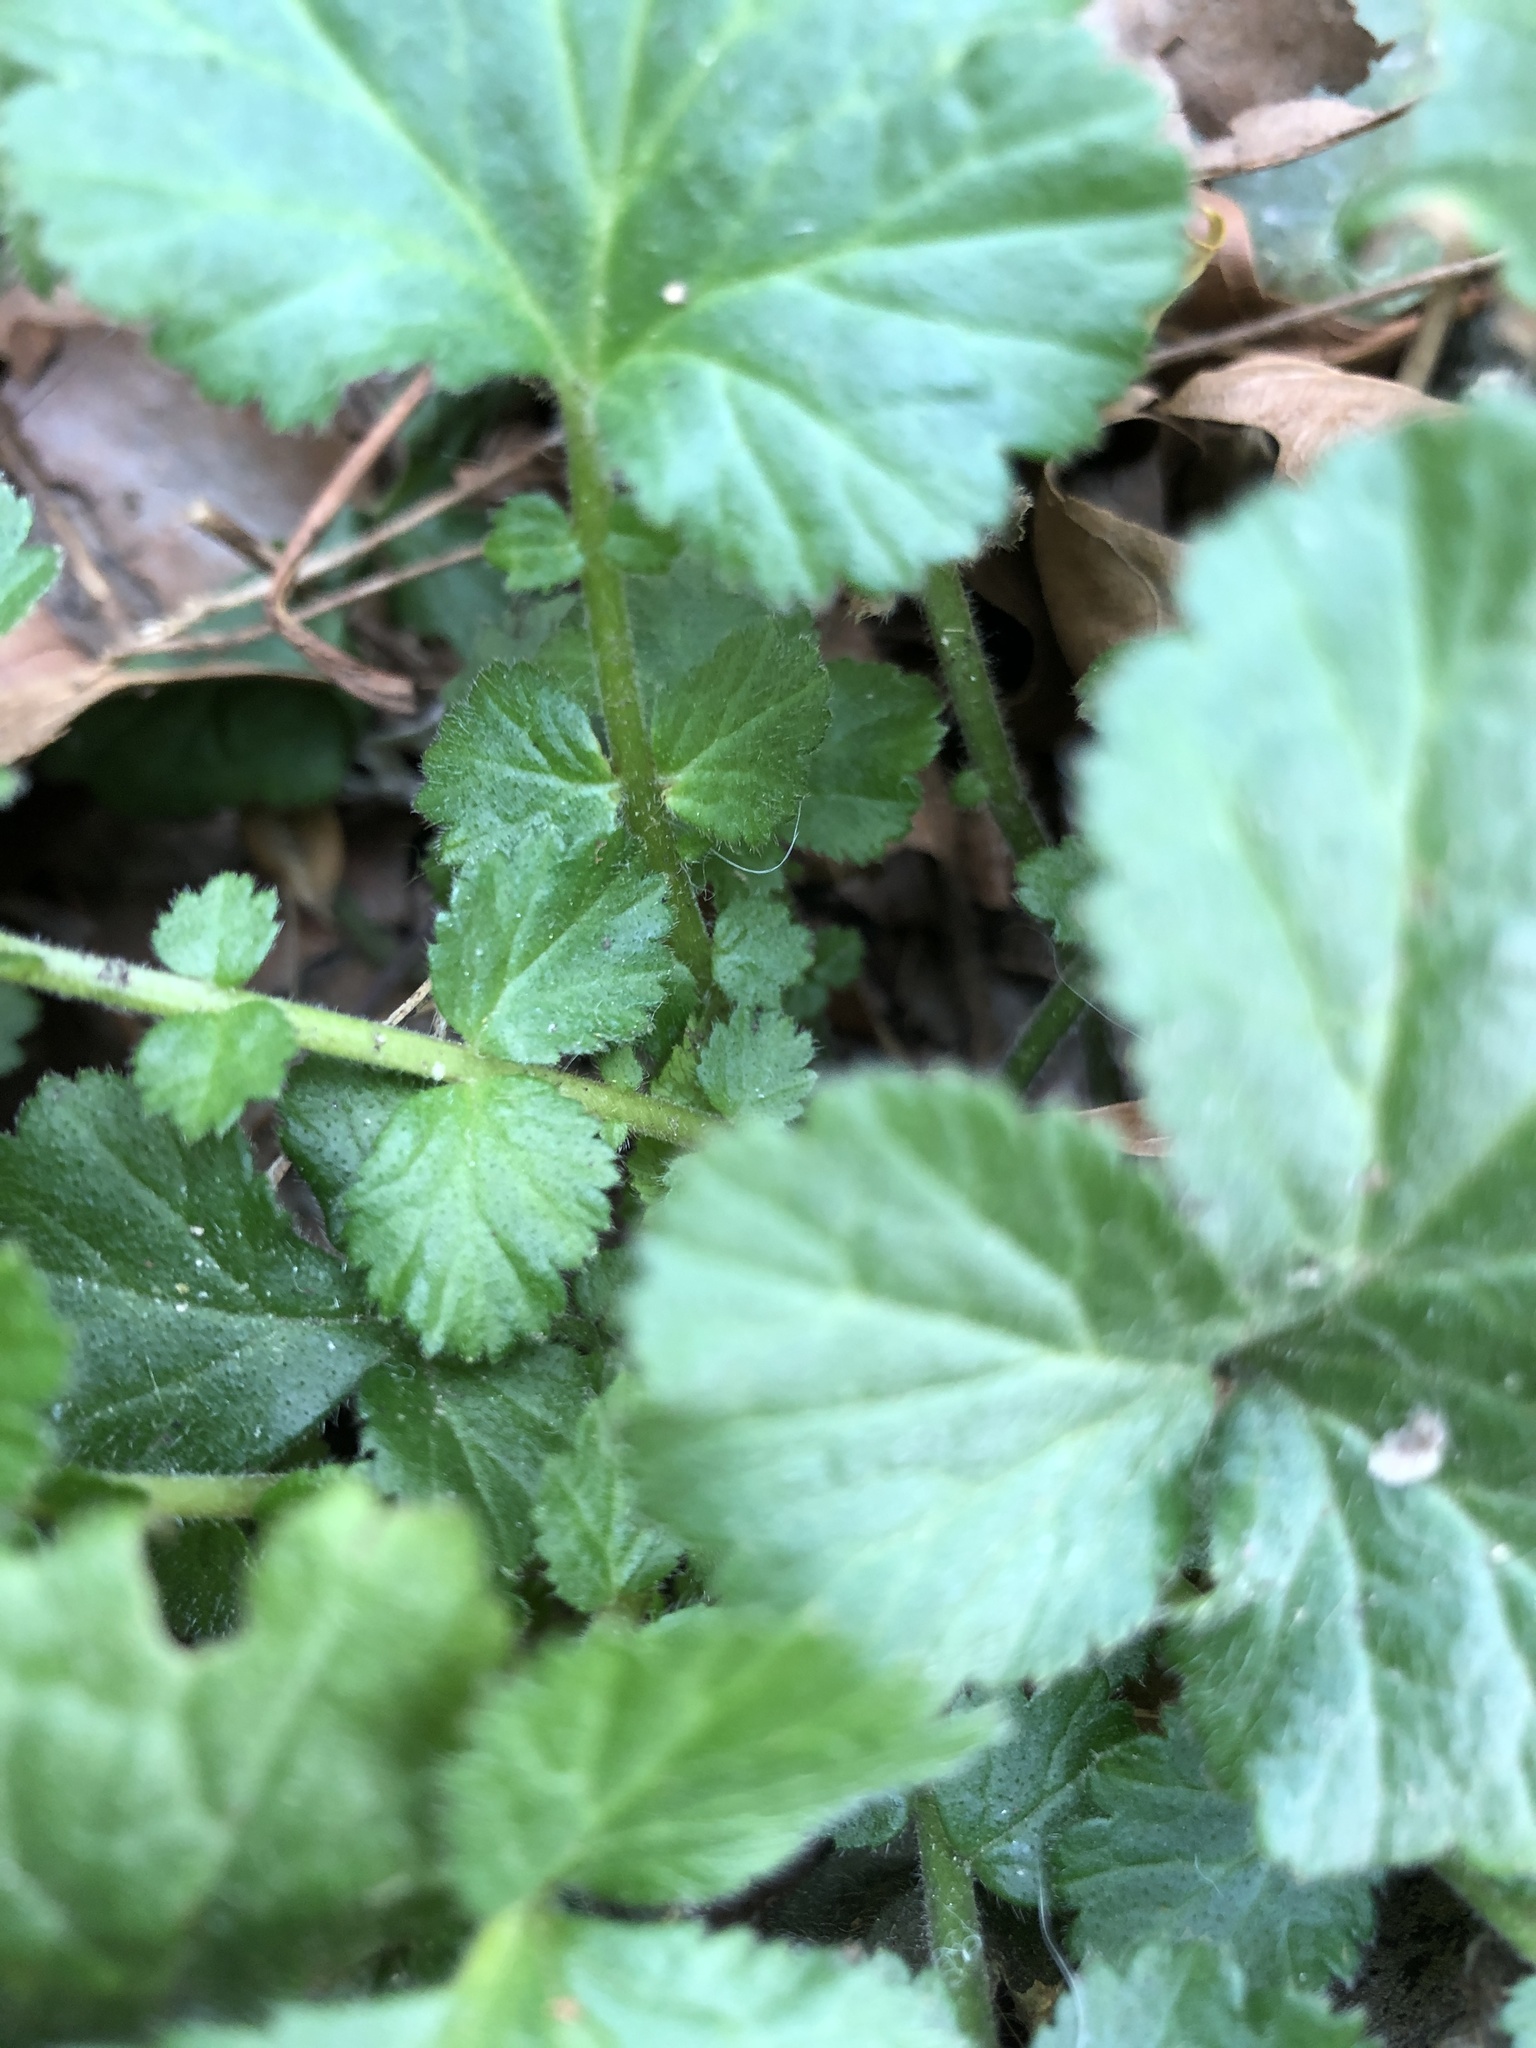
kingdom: Plantae
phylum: Tracheophyta
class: Magnoliopsida
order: Rosales
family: Rosaceae
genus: Geum
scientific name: Geum urbanum
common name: Wood avens
